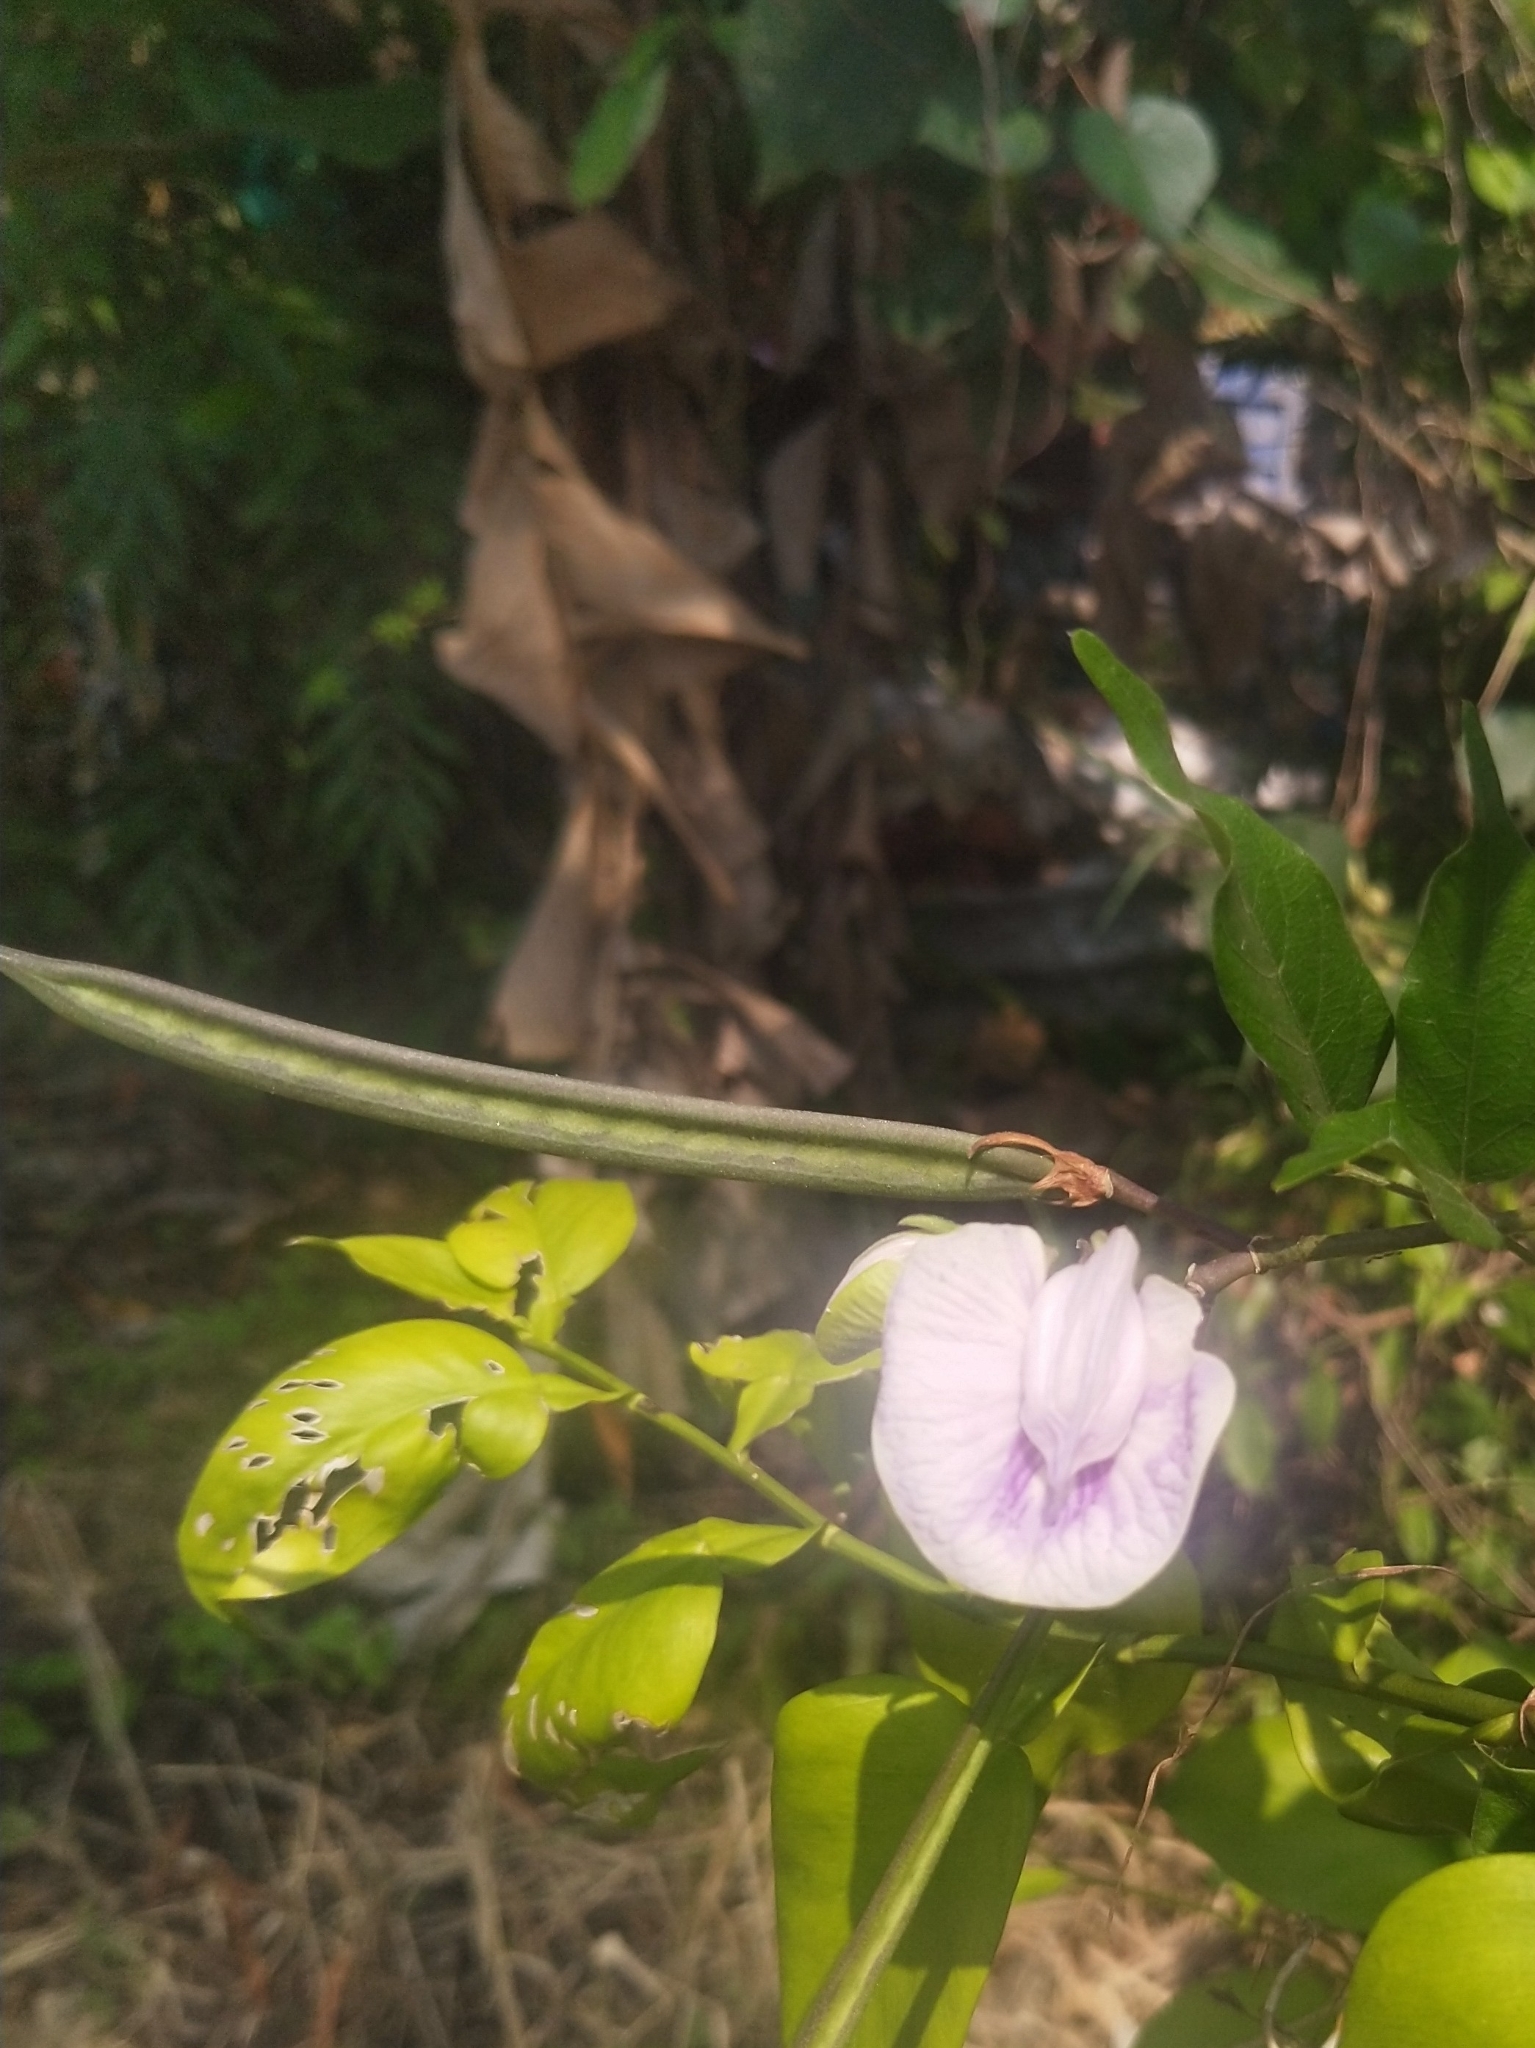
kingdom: Plantae
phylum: Tracheophyta
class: Magnoliopsida
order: Fabales
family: Fabaceae
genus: Centrosema
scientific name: Centrosema pubescens
